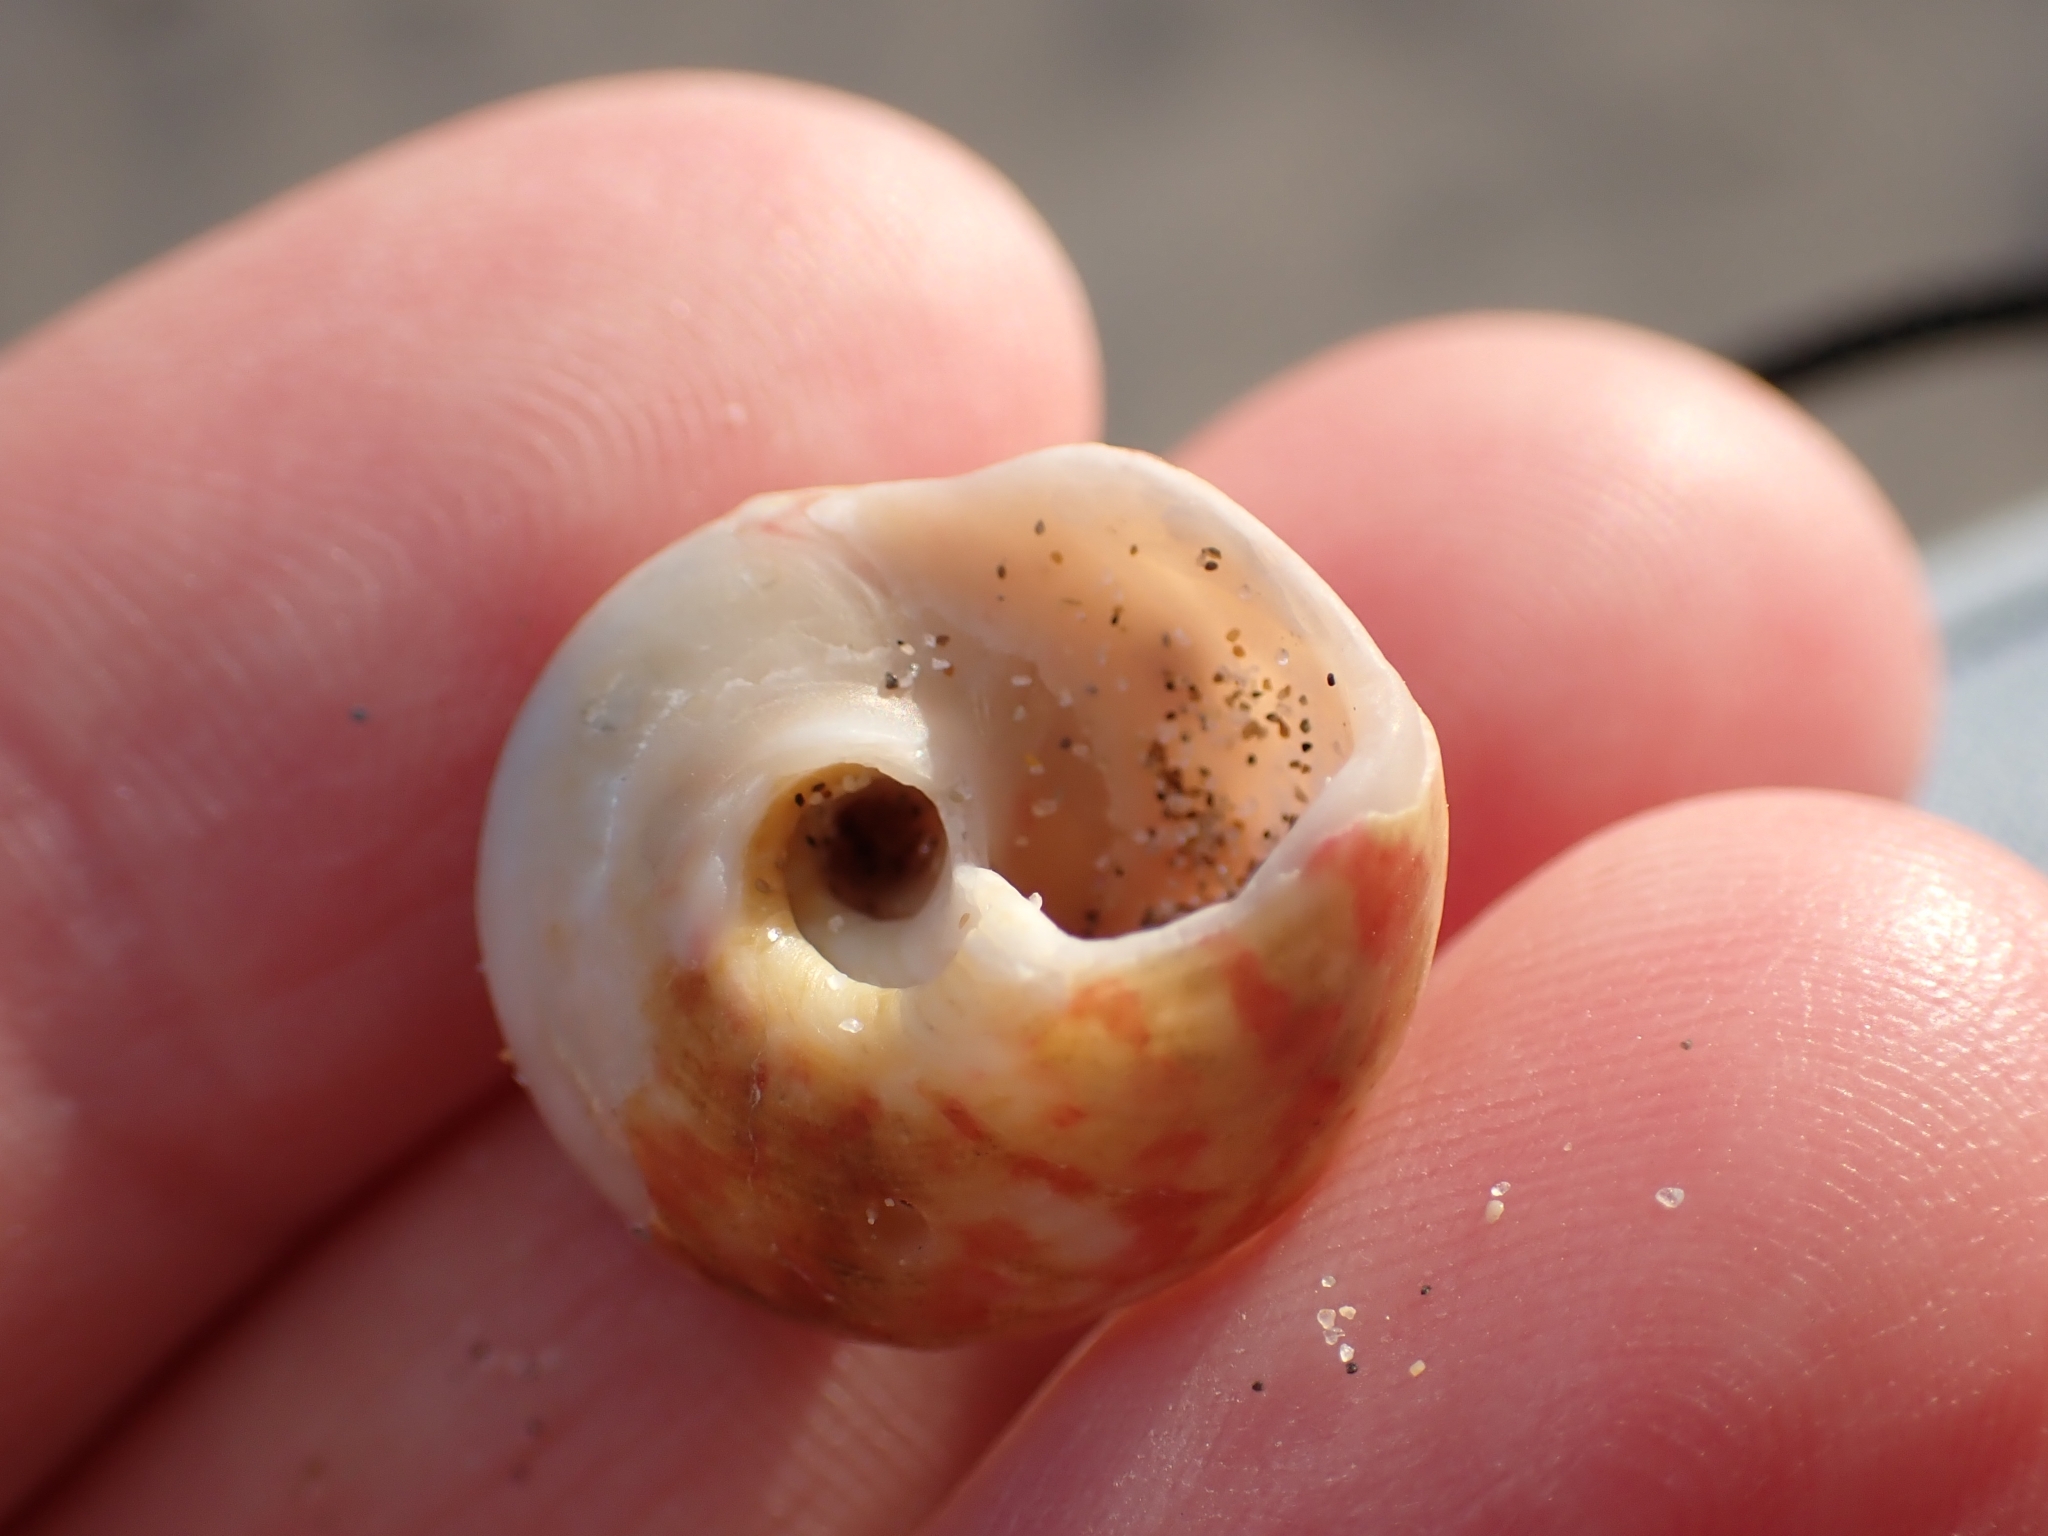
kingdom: Animalia
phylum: Mollusca
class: Gastropoda
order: Trochida
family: Trochidae
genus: Gibbula
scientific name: Gibbula magus
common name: Turban top shell
